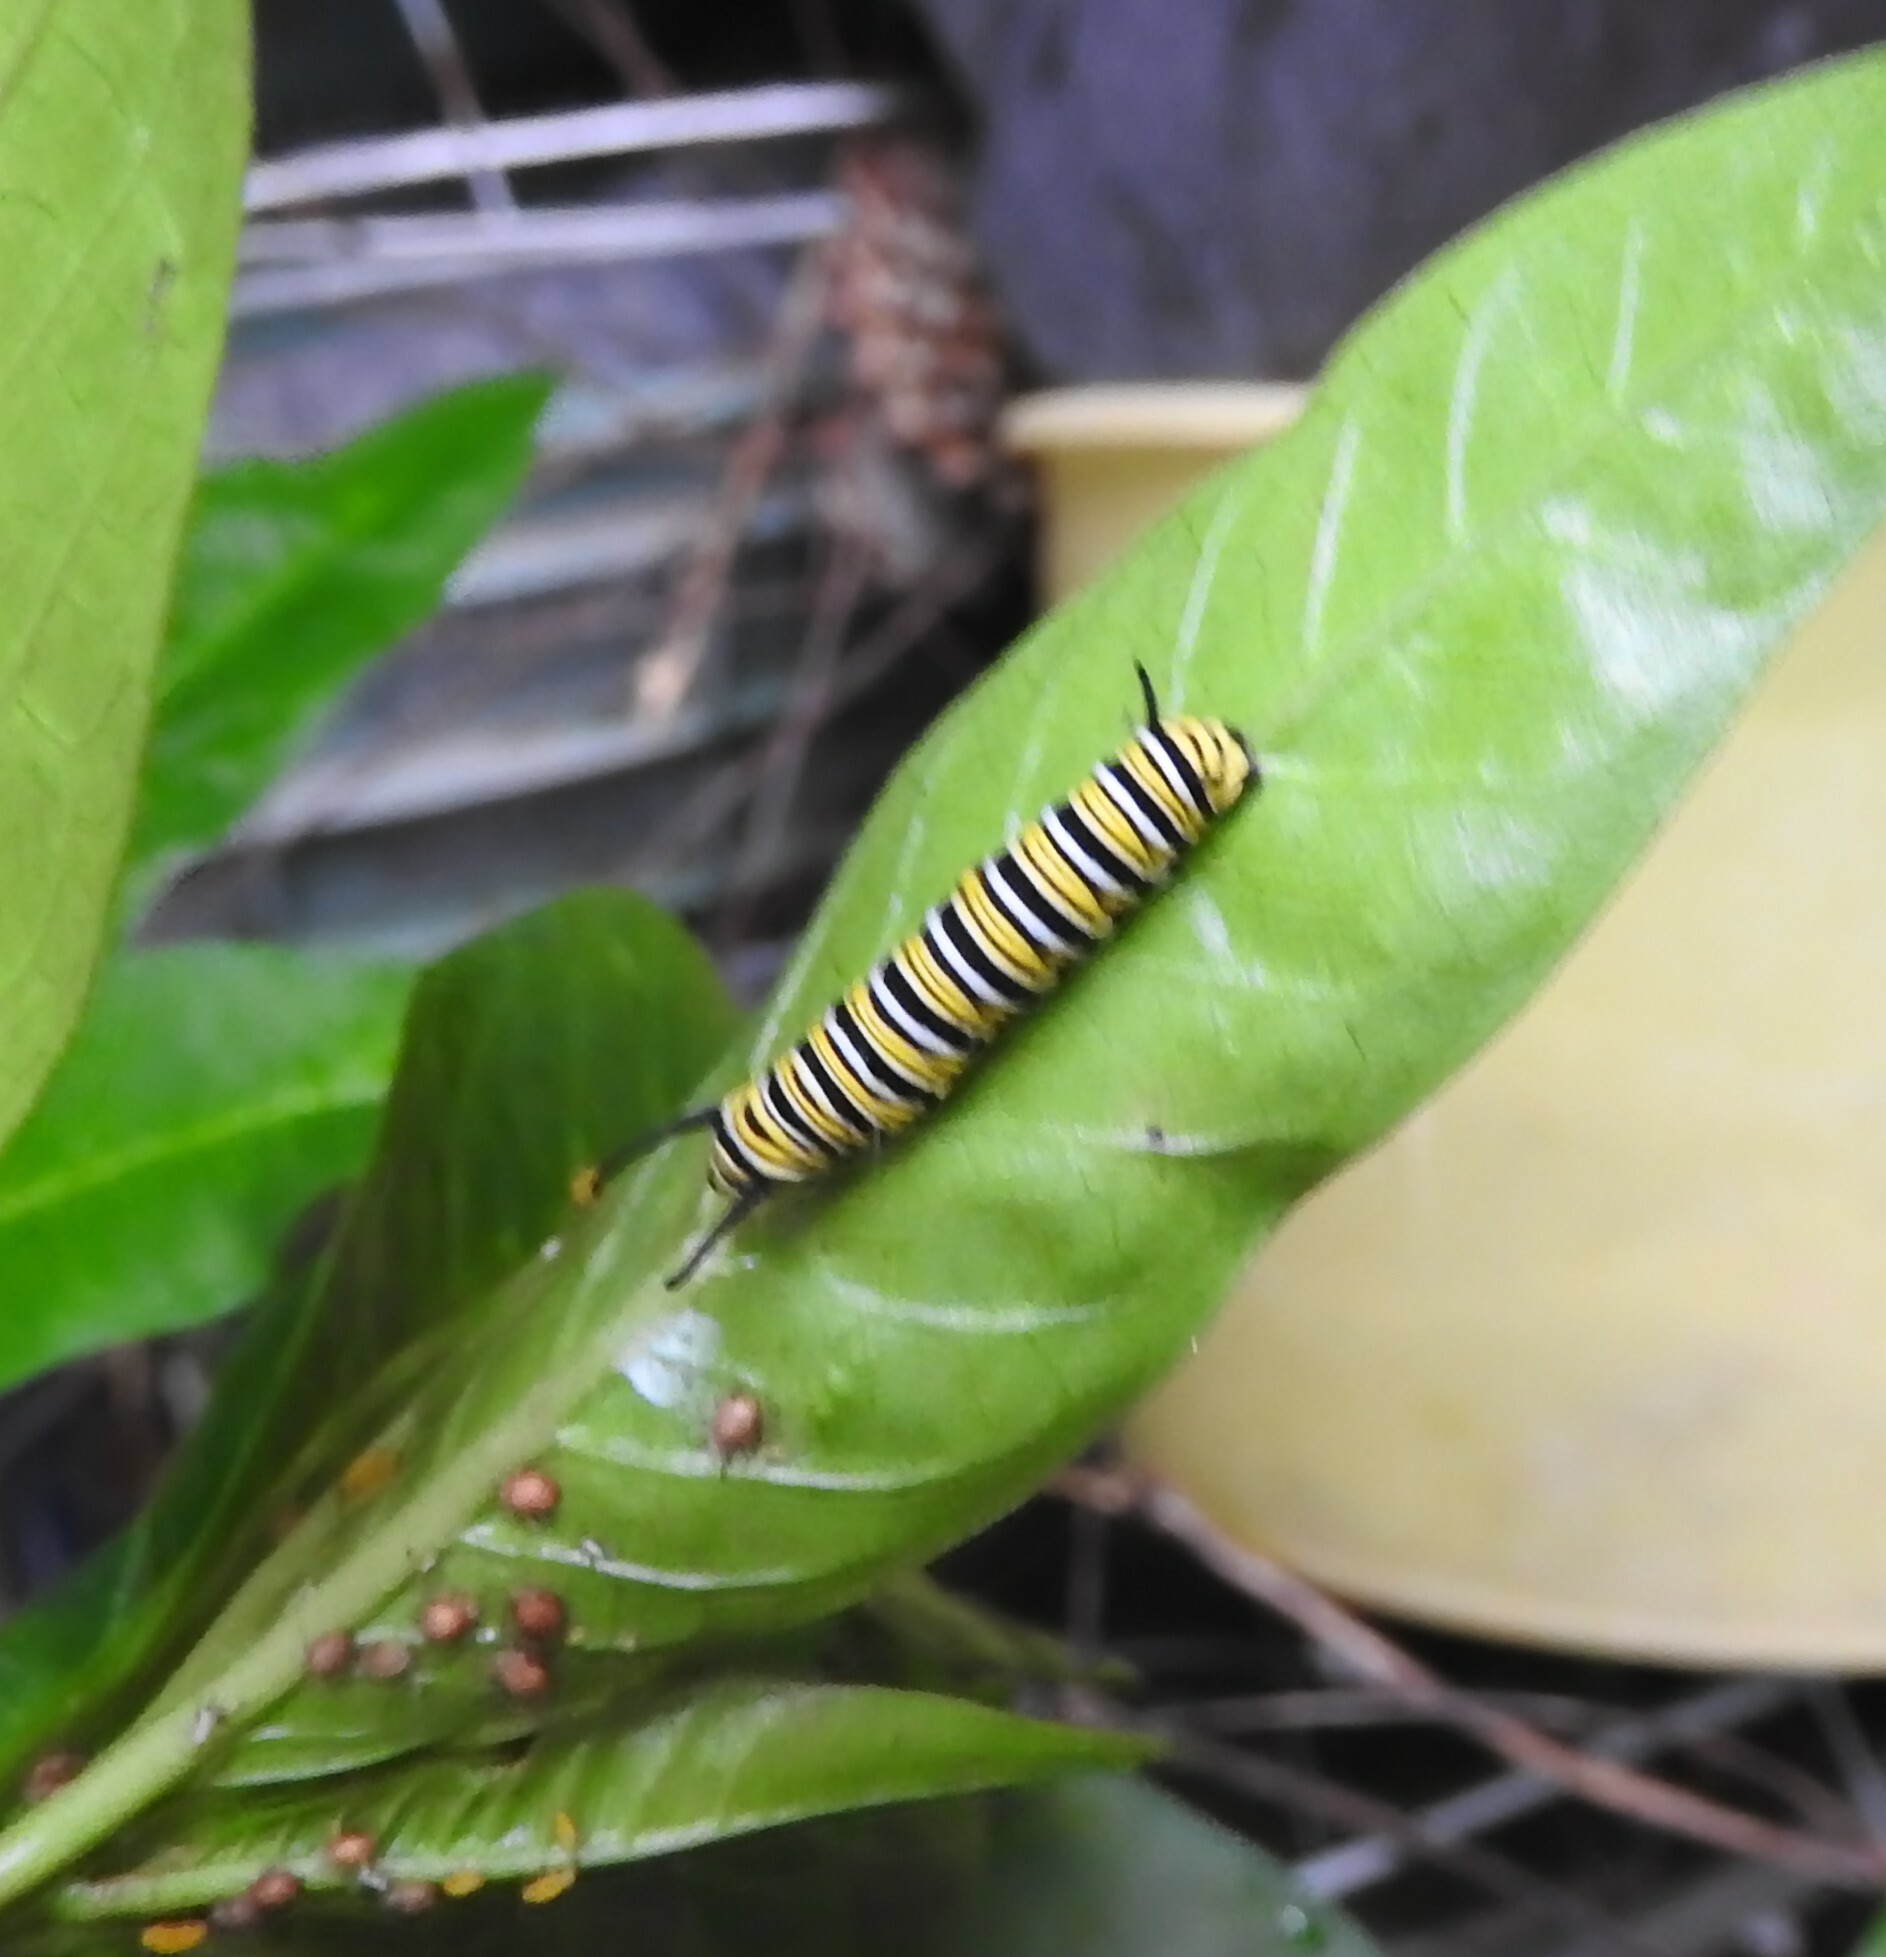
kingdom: Animalia
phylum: Arthropoda
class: Insecta
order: Lepidoptera
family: Nymphalidae
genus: Danaus
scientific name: Danaus plexippus
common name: Monarch
